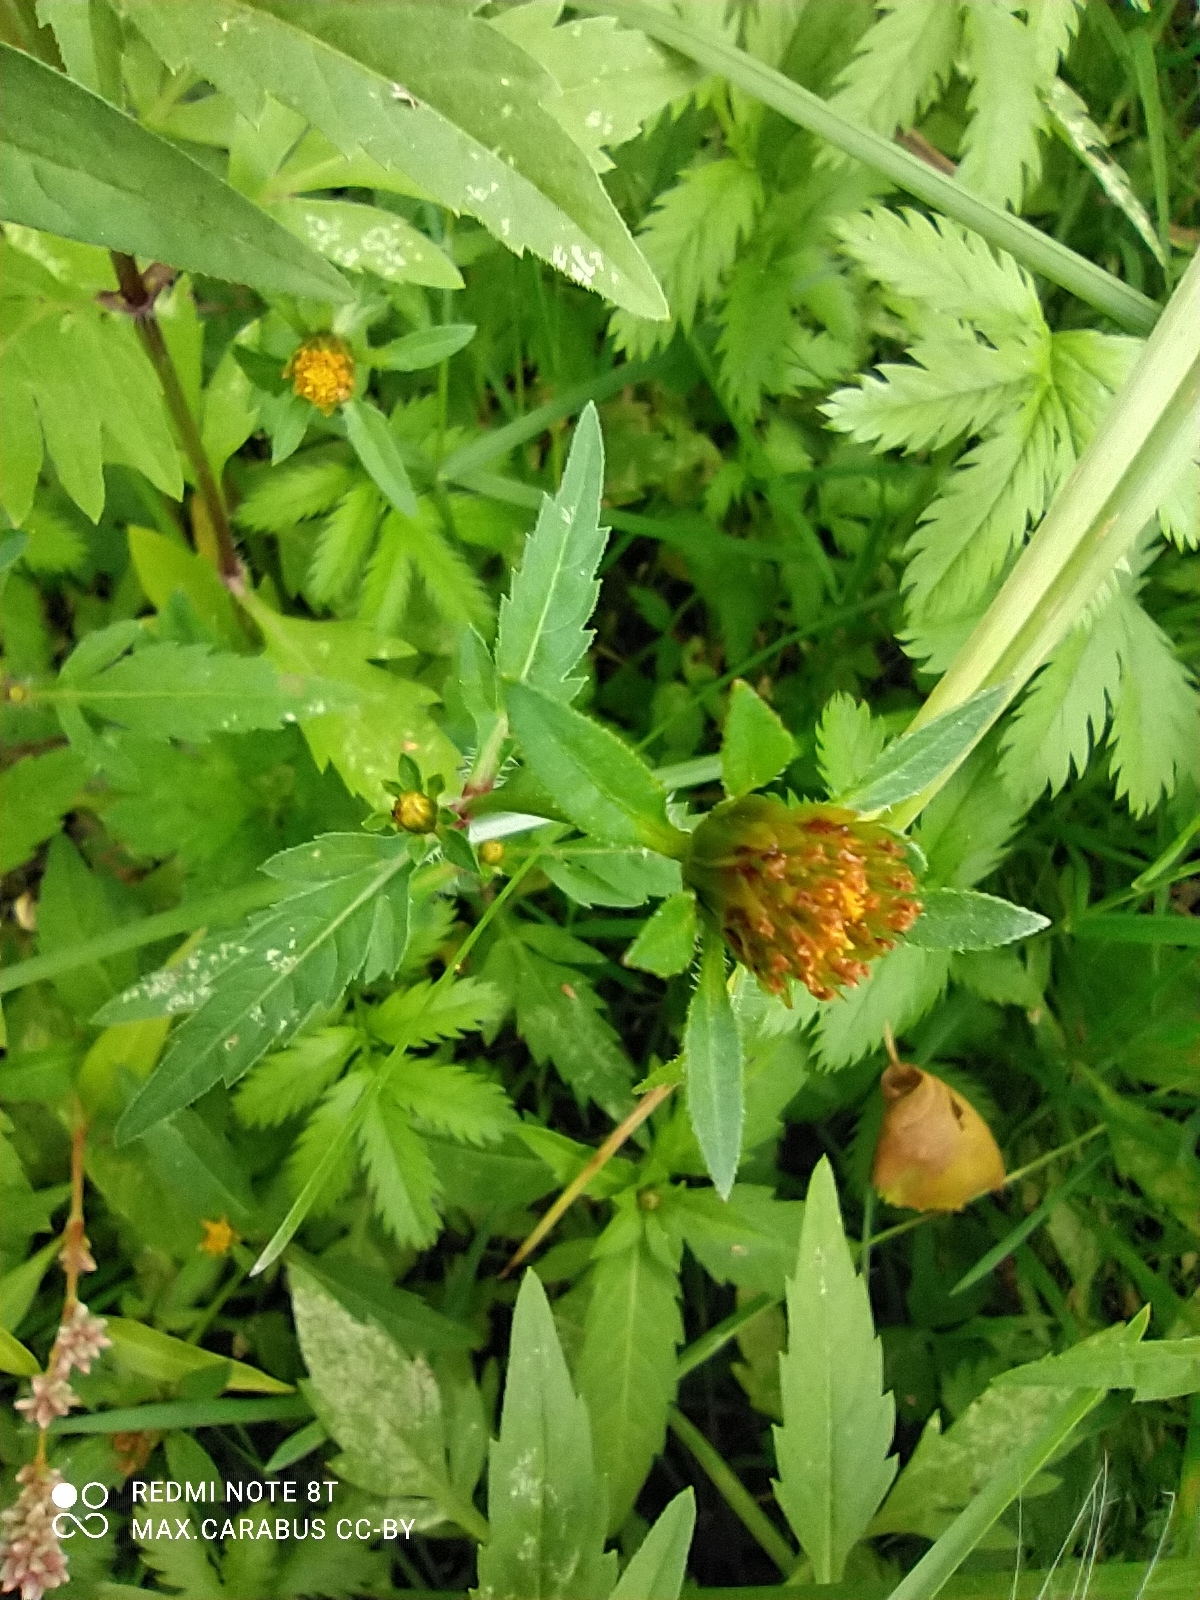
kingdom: Plantae
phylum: Tracheophyta
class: Magnoliopsida
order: Asterales
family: Asteraceae
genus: Bidens
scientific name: Bidens tripartita
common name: Trifid bur-marigold
